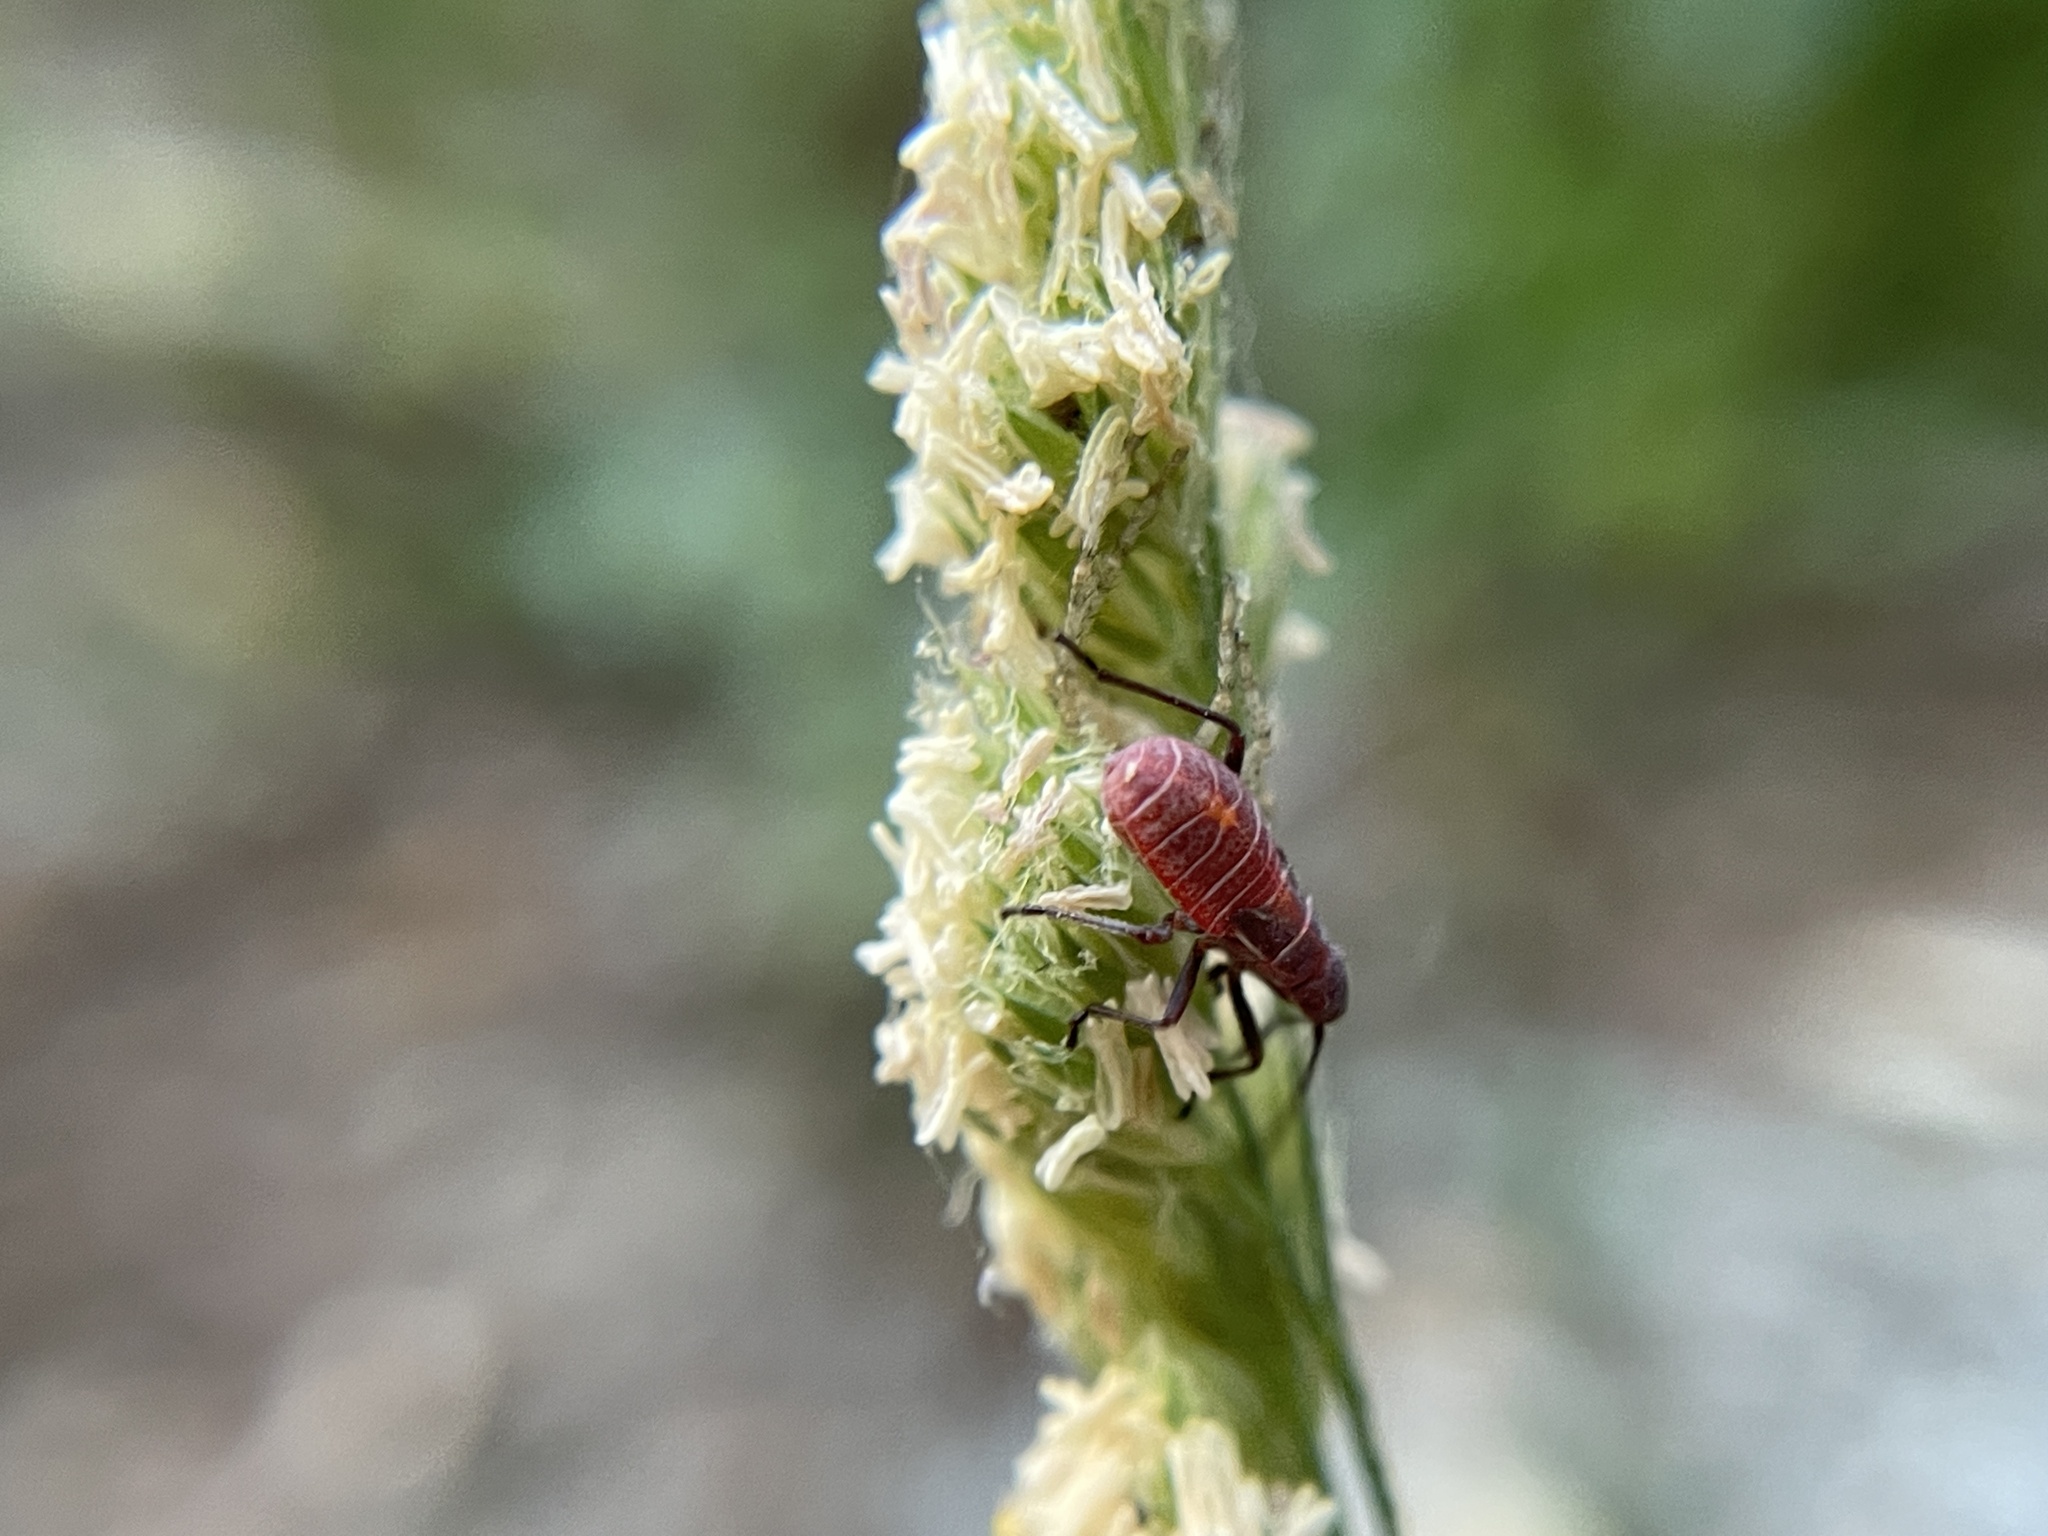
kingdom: Animalia
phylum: Arthropoda
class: Insecta
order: Hemiptera
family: Rhopalidae
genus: Boisea
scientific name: Boisea rubrolineata
